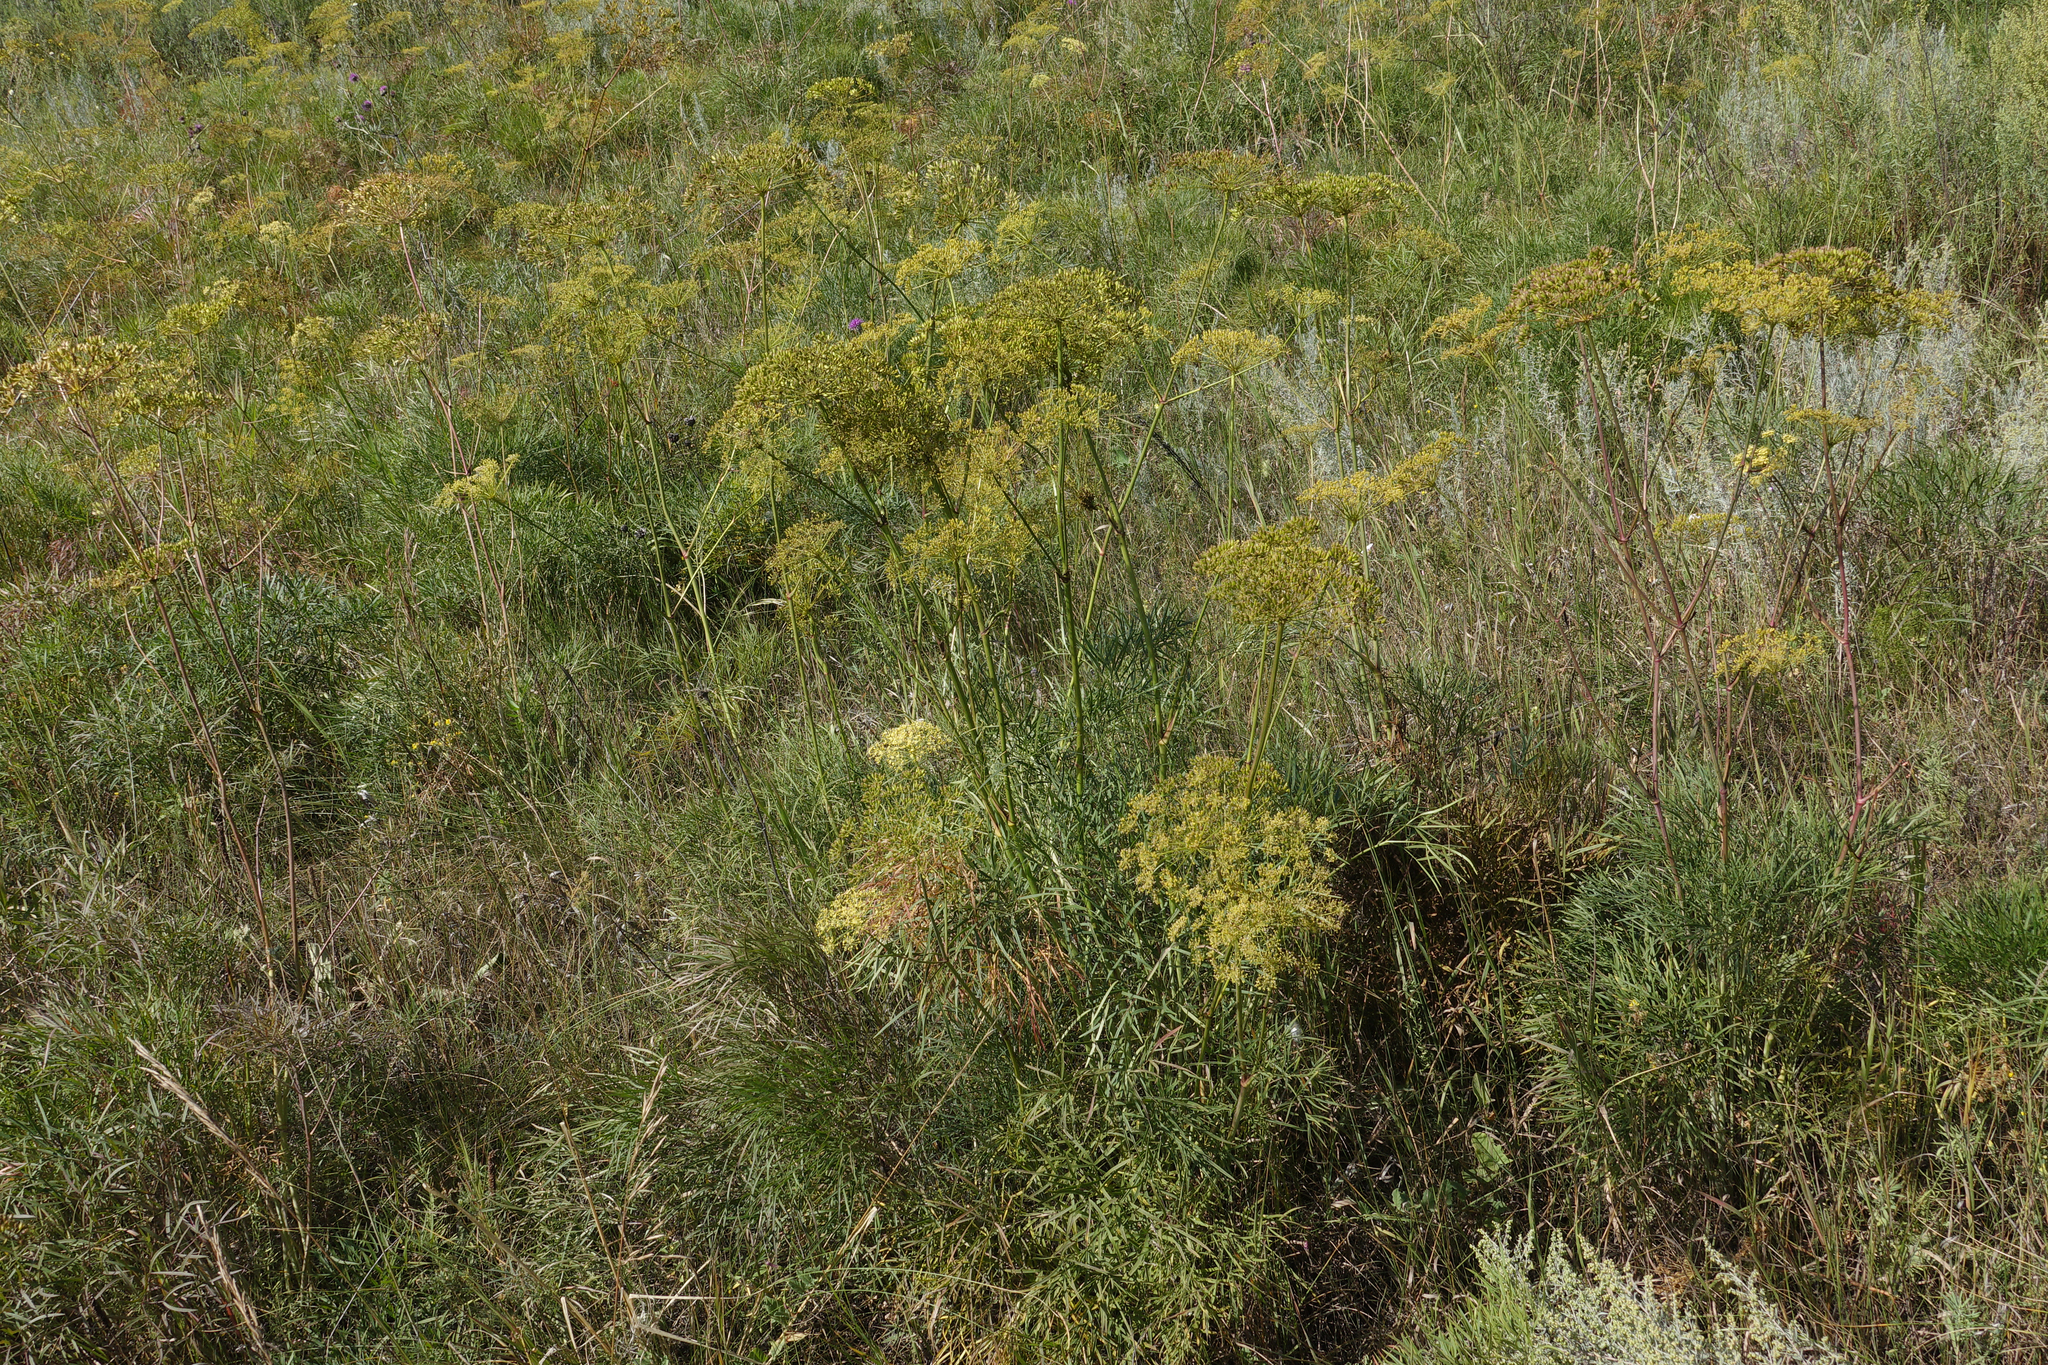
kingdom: Plantae
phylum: Tracheophyta
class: Magnoliopsida
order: Apiales
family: Apiaceae
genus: Peucedanum
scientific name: Peucedanum morisonii
